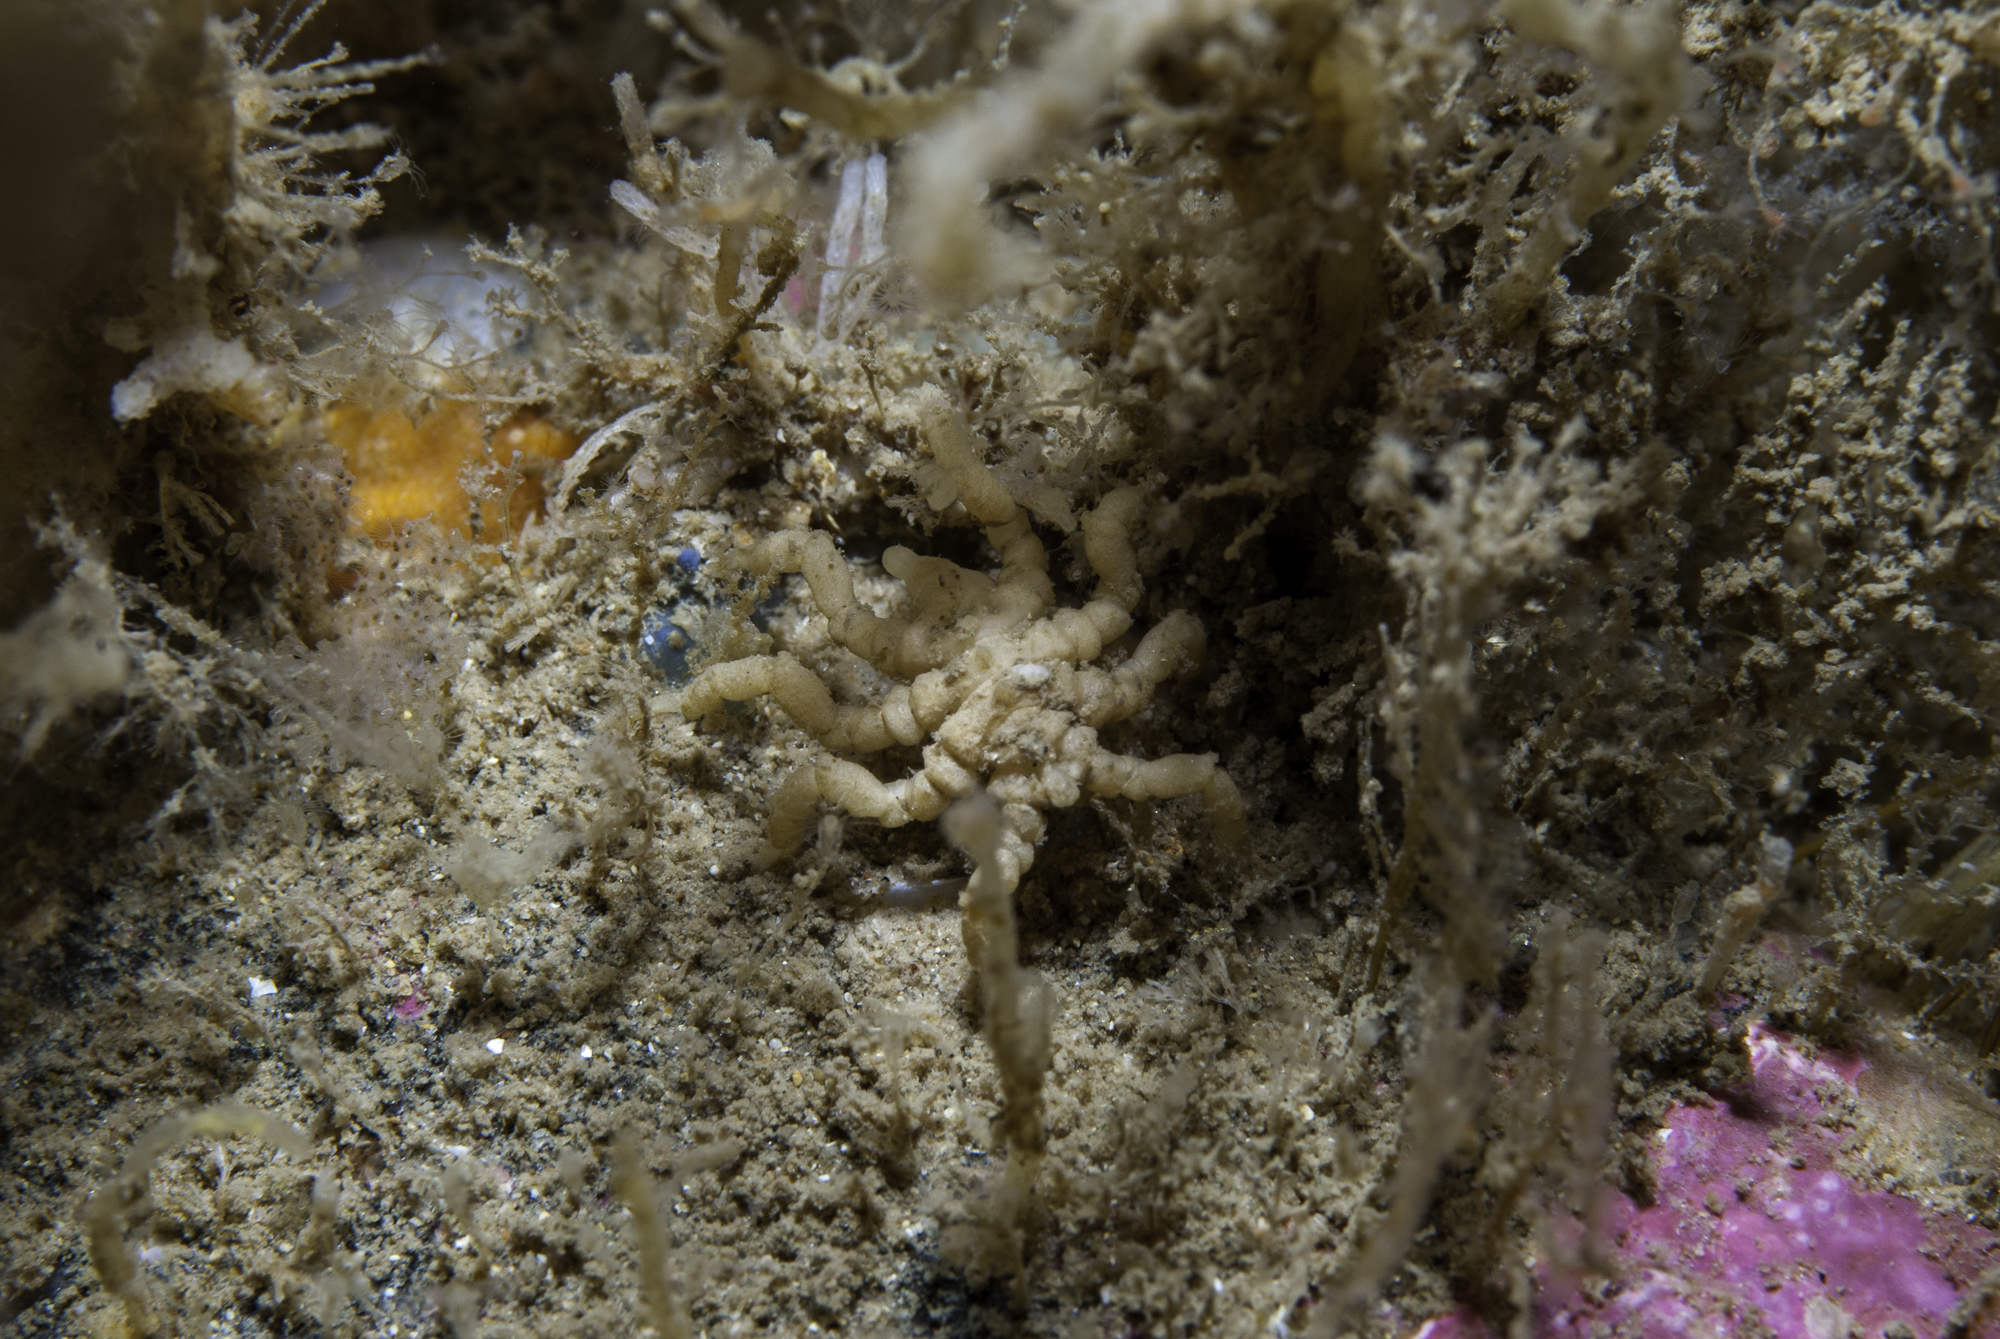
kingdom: Animalia
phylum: Arthropoda
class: Pycnogonida
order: Pantopoda
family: Pycnogonidae
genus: Pycnogonum
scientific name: Pycnogonum litorale
